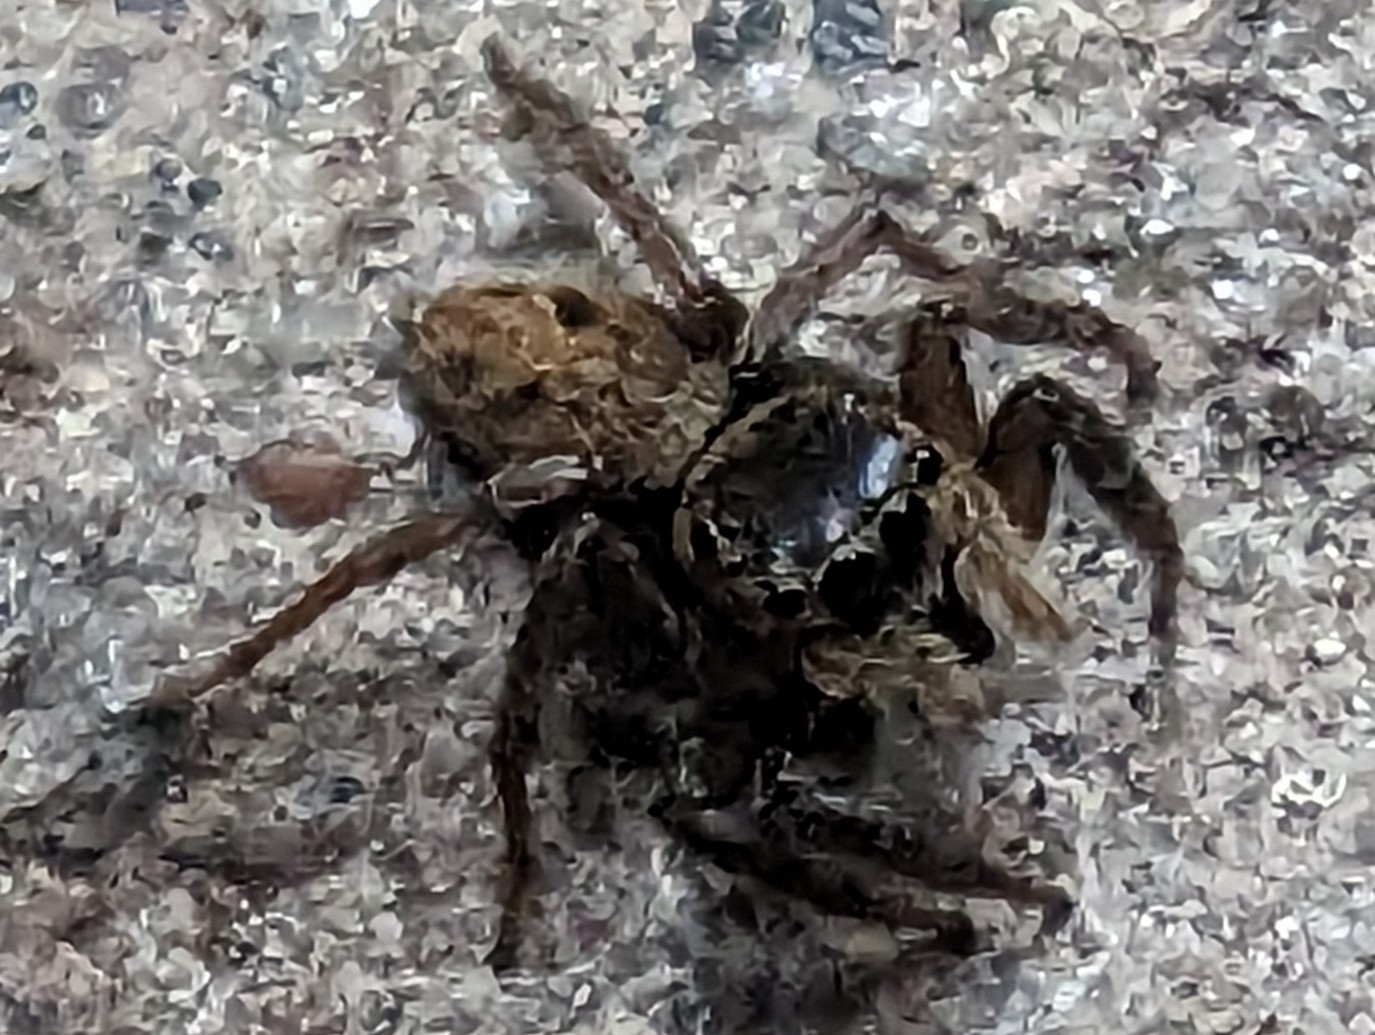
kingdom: Animalia
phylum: Arthropoda
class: Arachnida
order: Araneae
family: Salticidae
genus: Hasarius
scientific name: Hasarius adansoni
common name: Jumping spider
